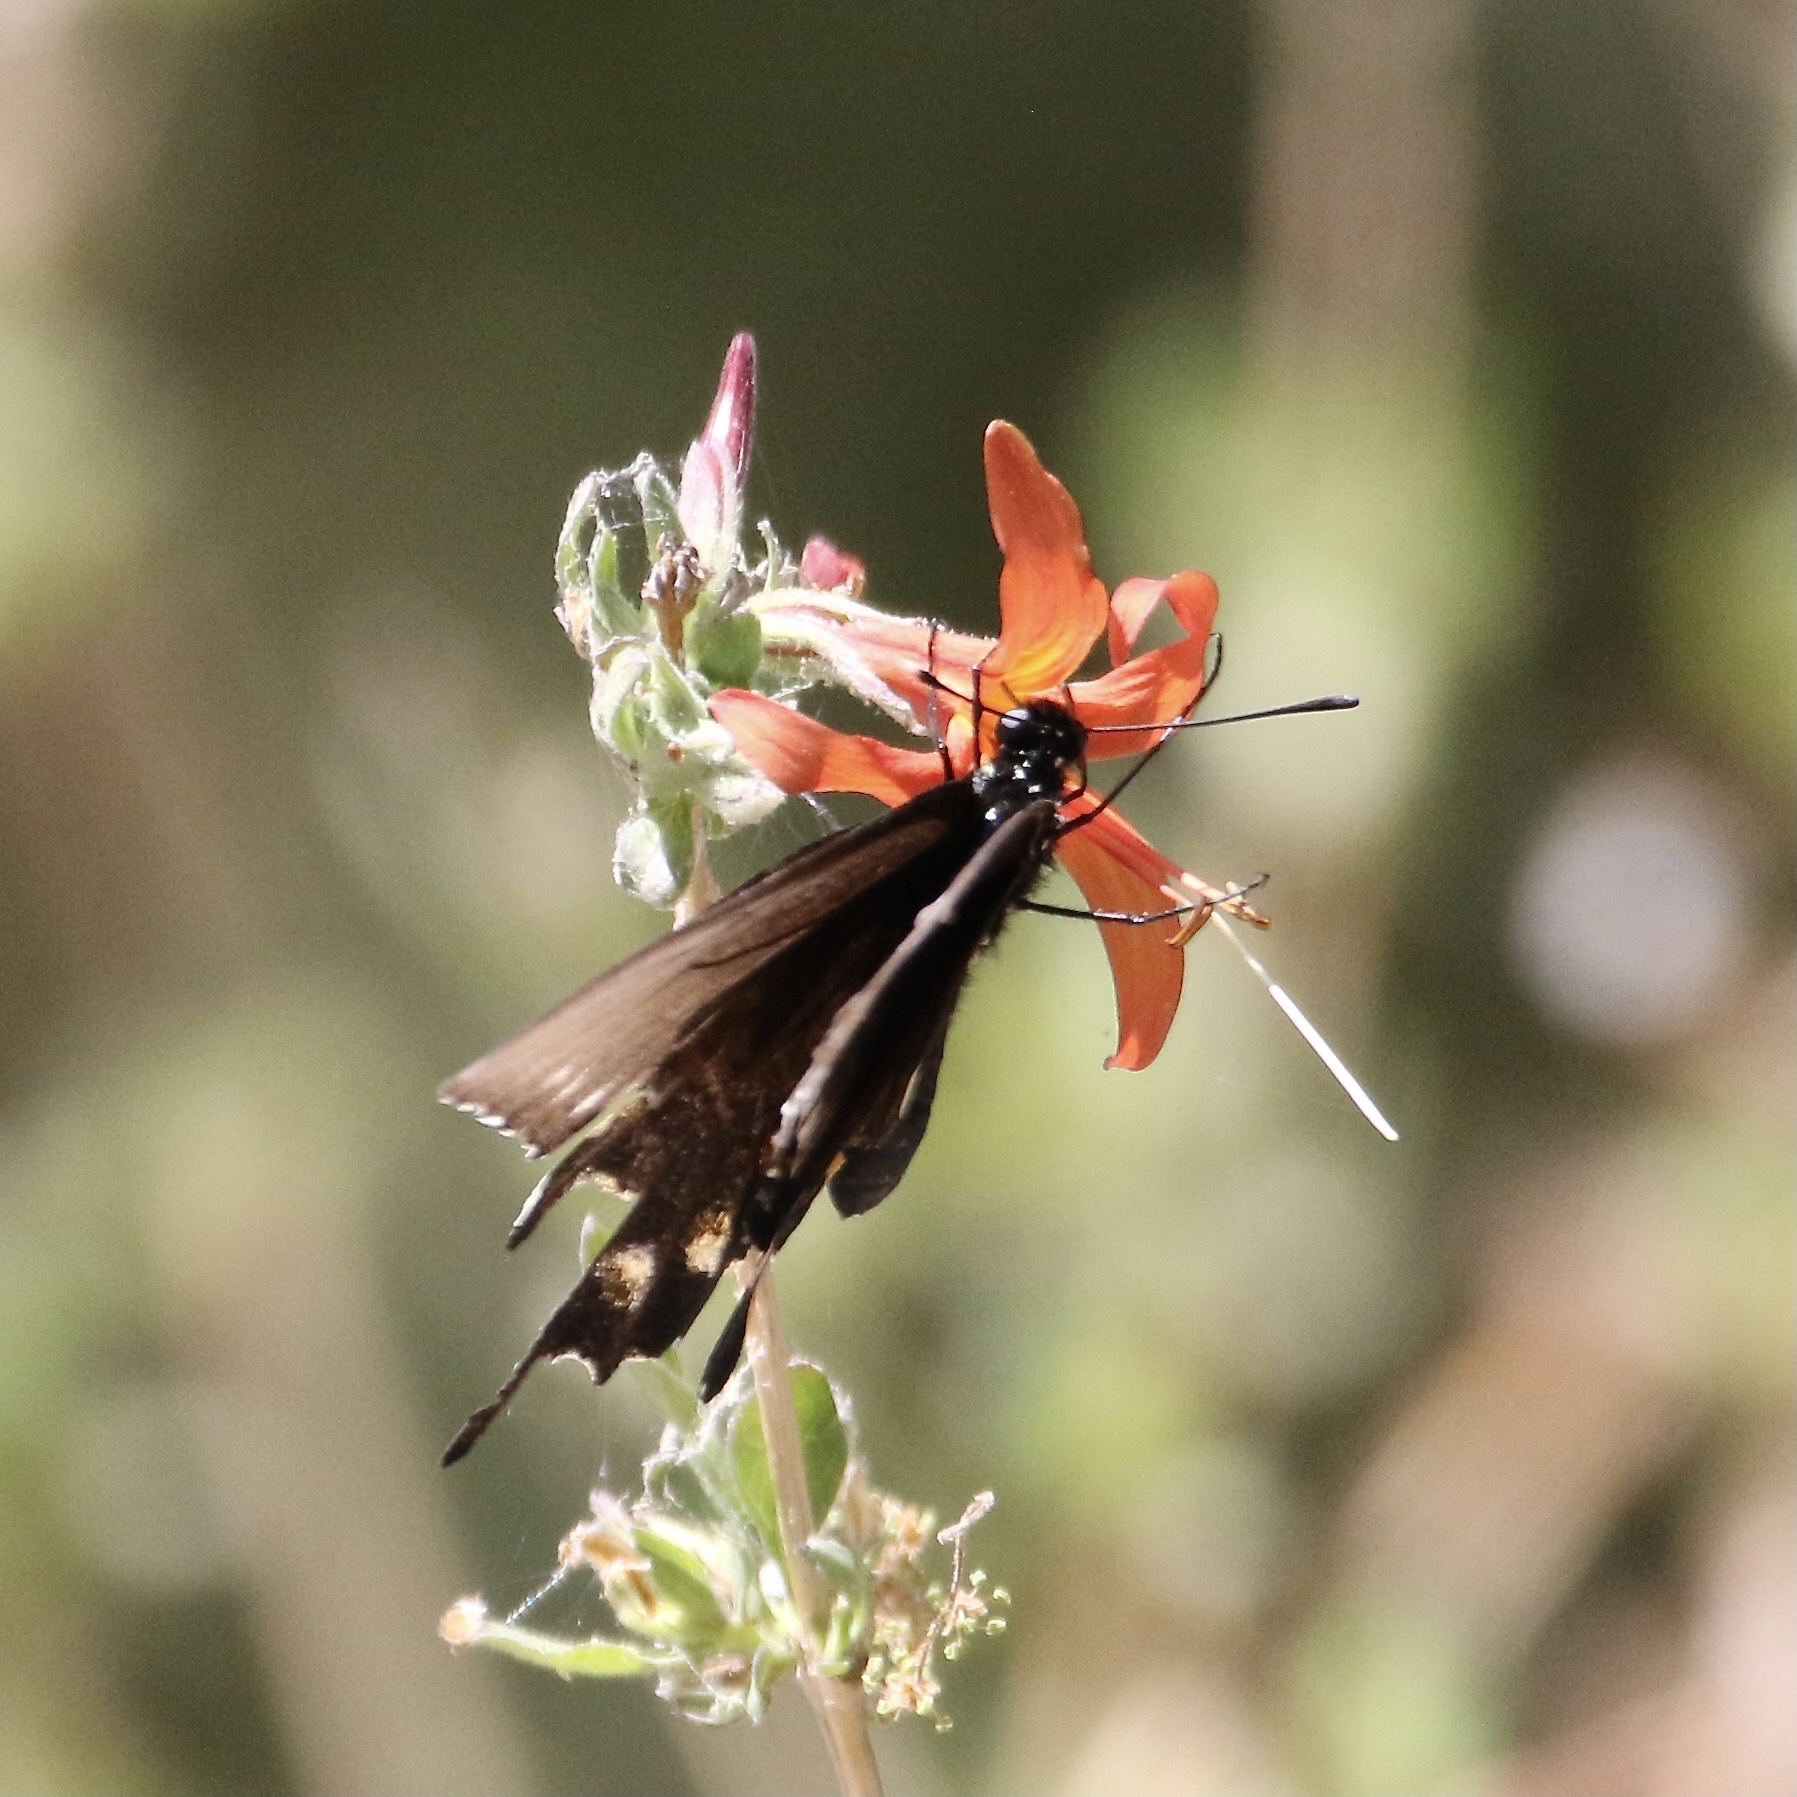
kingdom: Animalia
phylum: Arthropoda
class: Insecta
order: Lepidoptera
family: Papilionidae
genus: Battus
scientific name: Battus philenor
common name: Pipevine swallowtail
